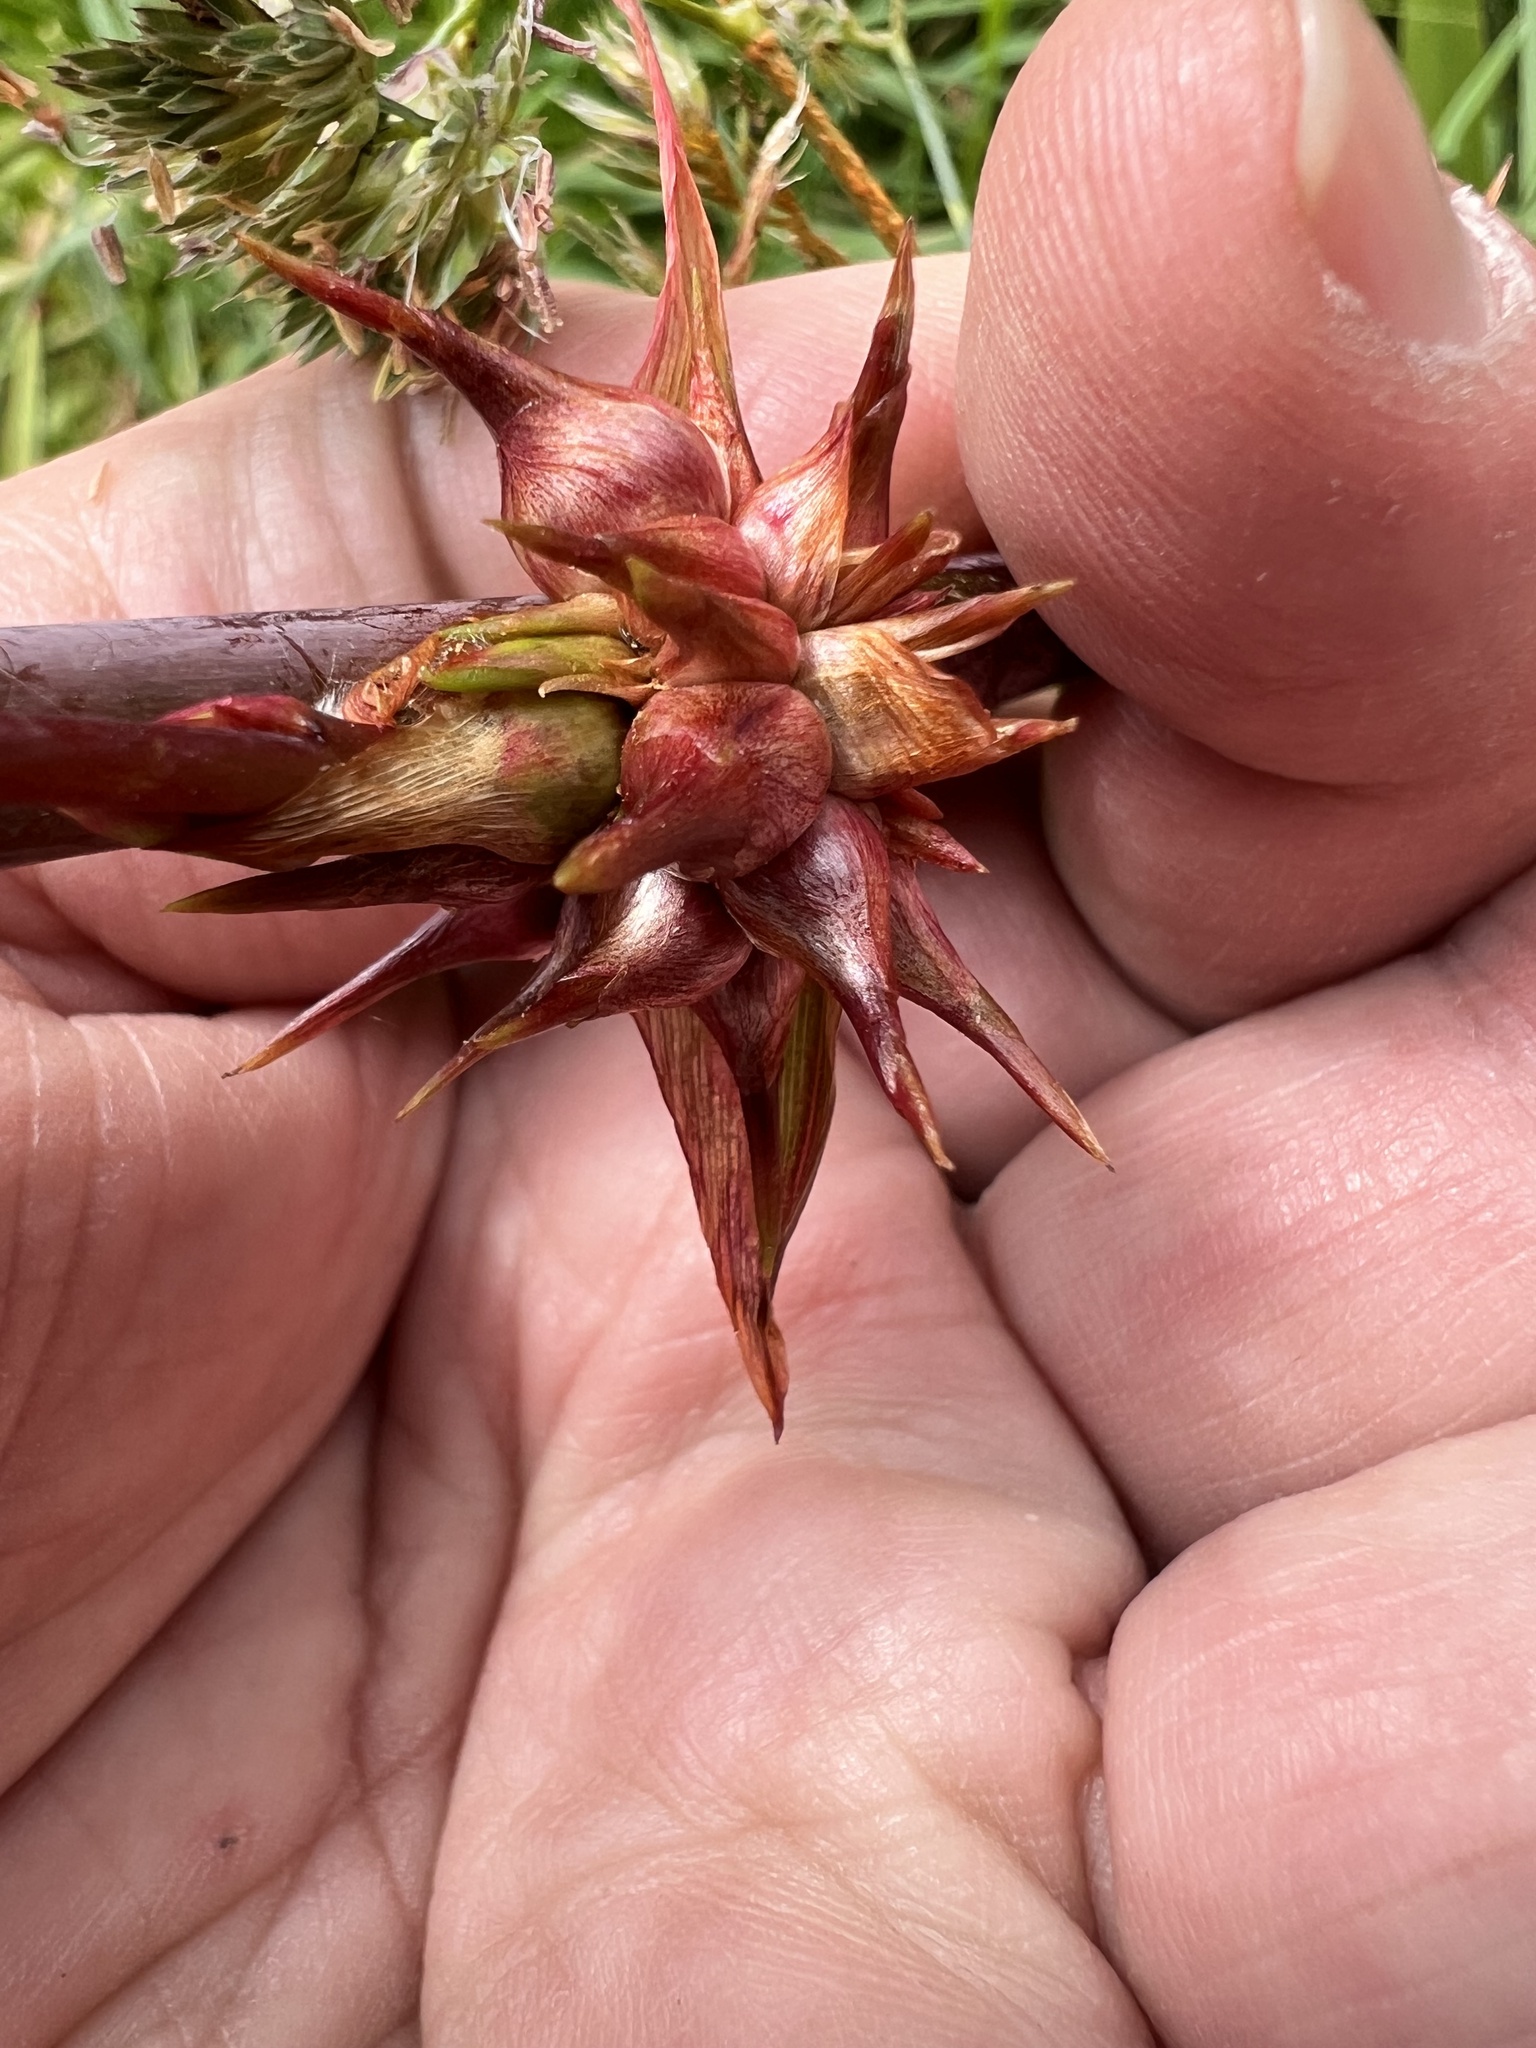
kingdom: Plantae
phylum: Tracheophyta
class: Liliopsida
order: Asparagales
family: Iridaceae
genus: Watsonia
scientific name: Watsonia meriana
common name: Bulbil bugle-lily
